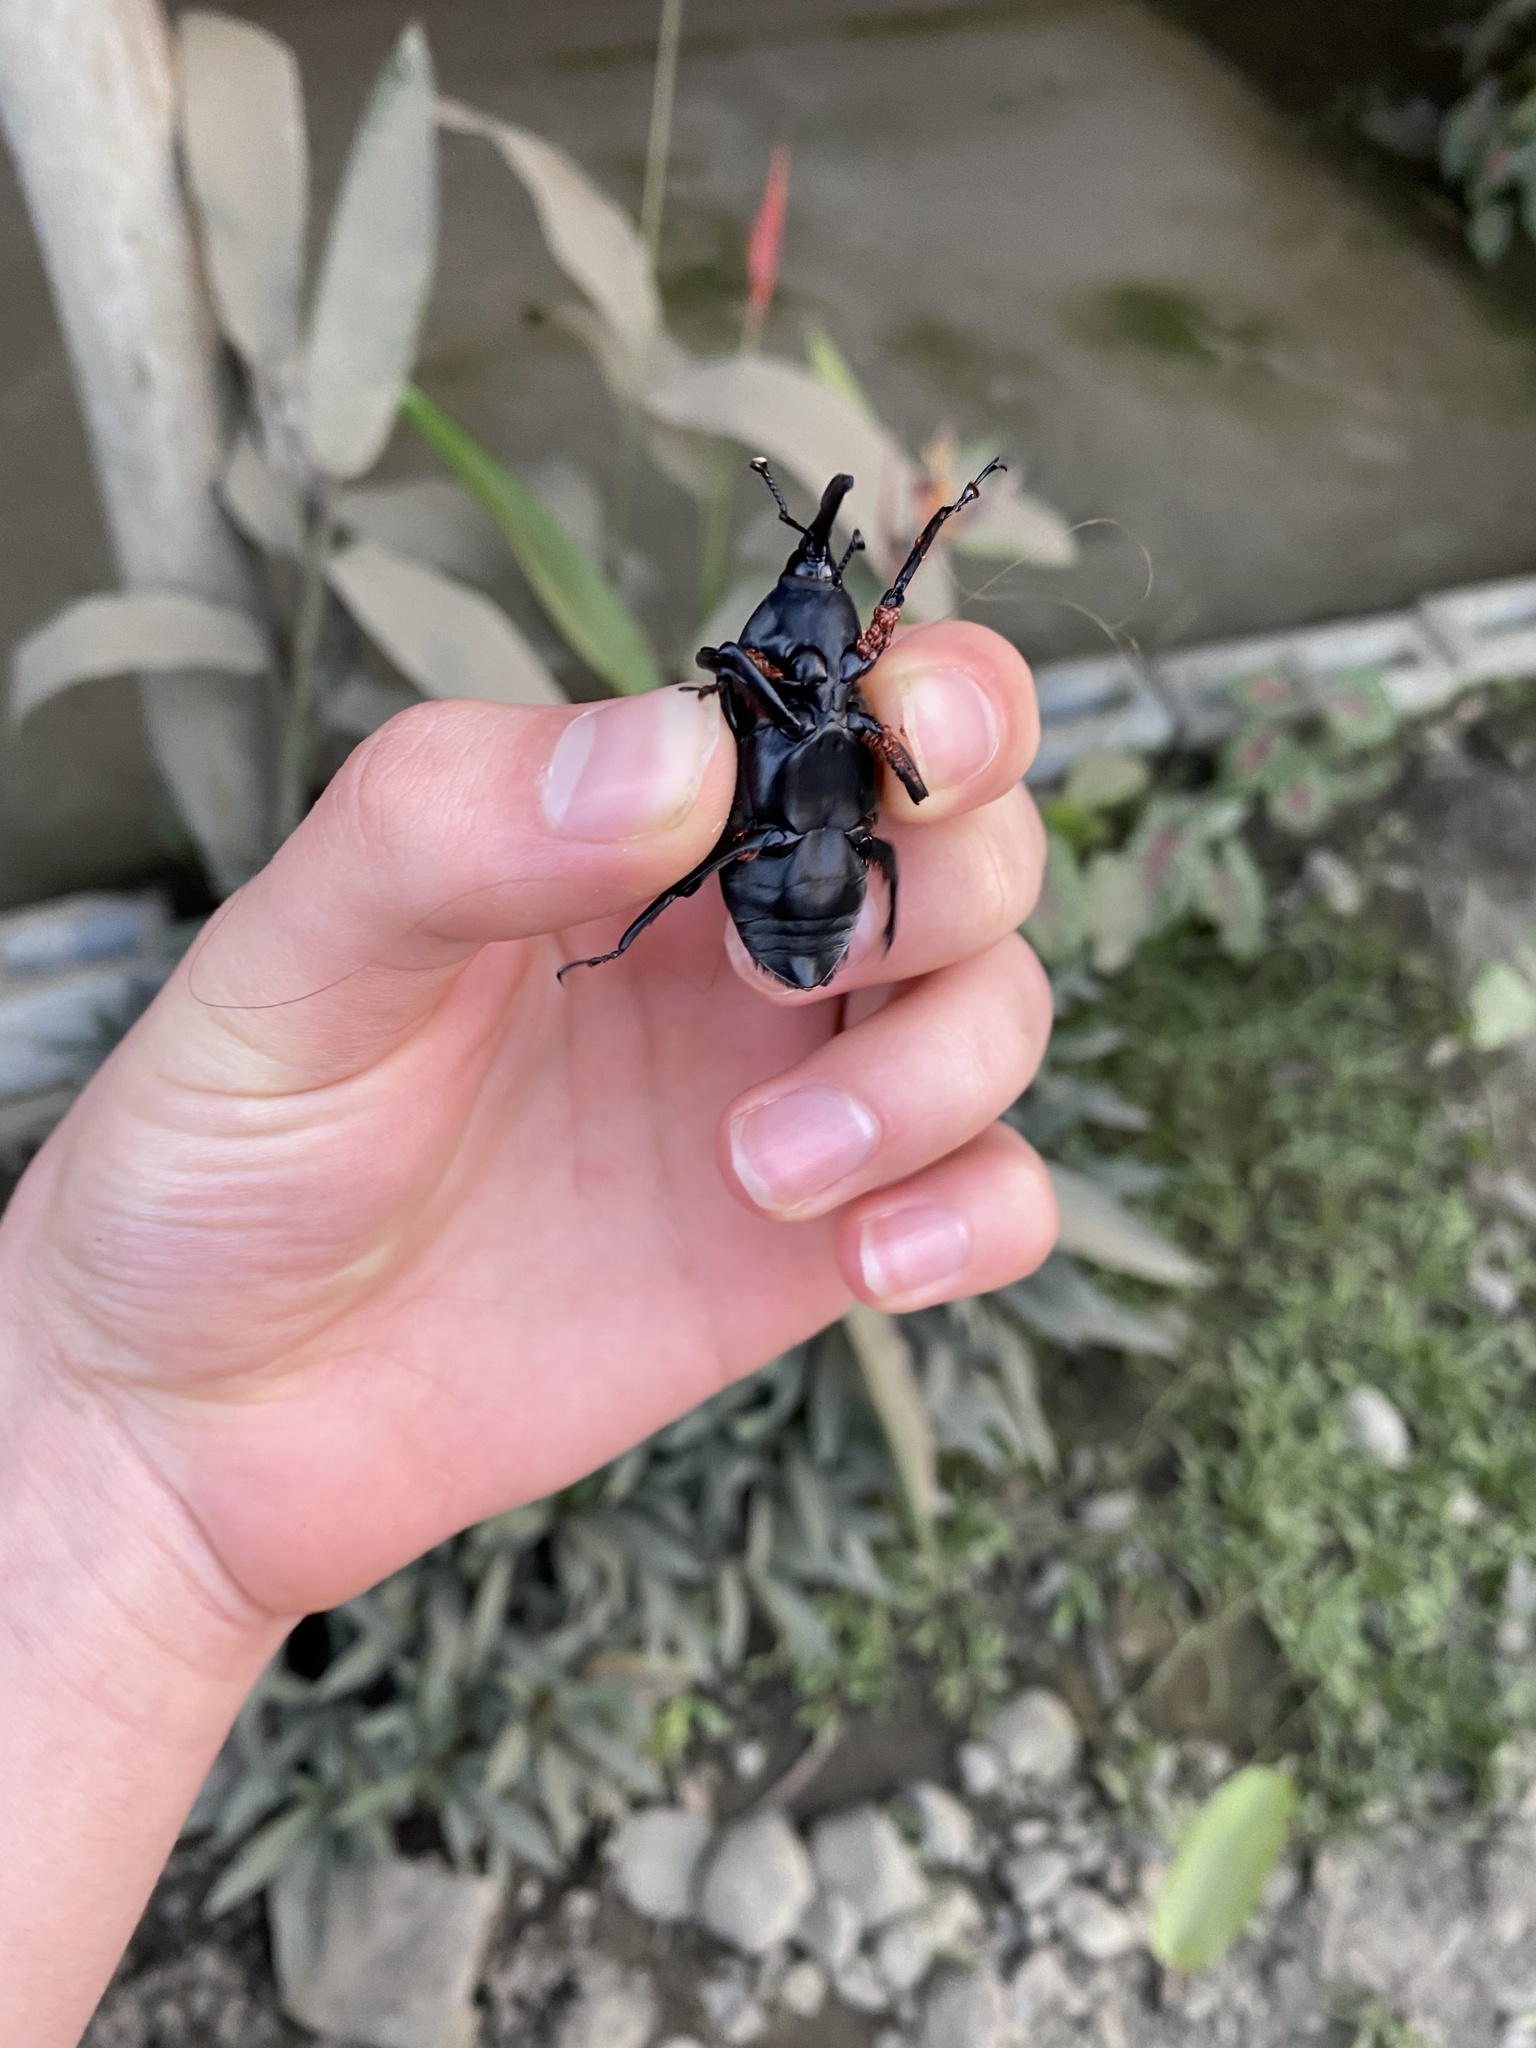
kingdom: Animalia
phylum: Arthropoda
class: Insecta
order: Coleoptera
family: Dryophthoridae
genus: Rhynchophorus
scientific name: Rhynchophorus palmarum
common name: Palm weevil
